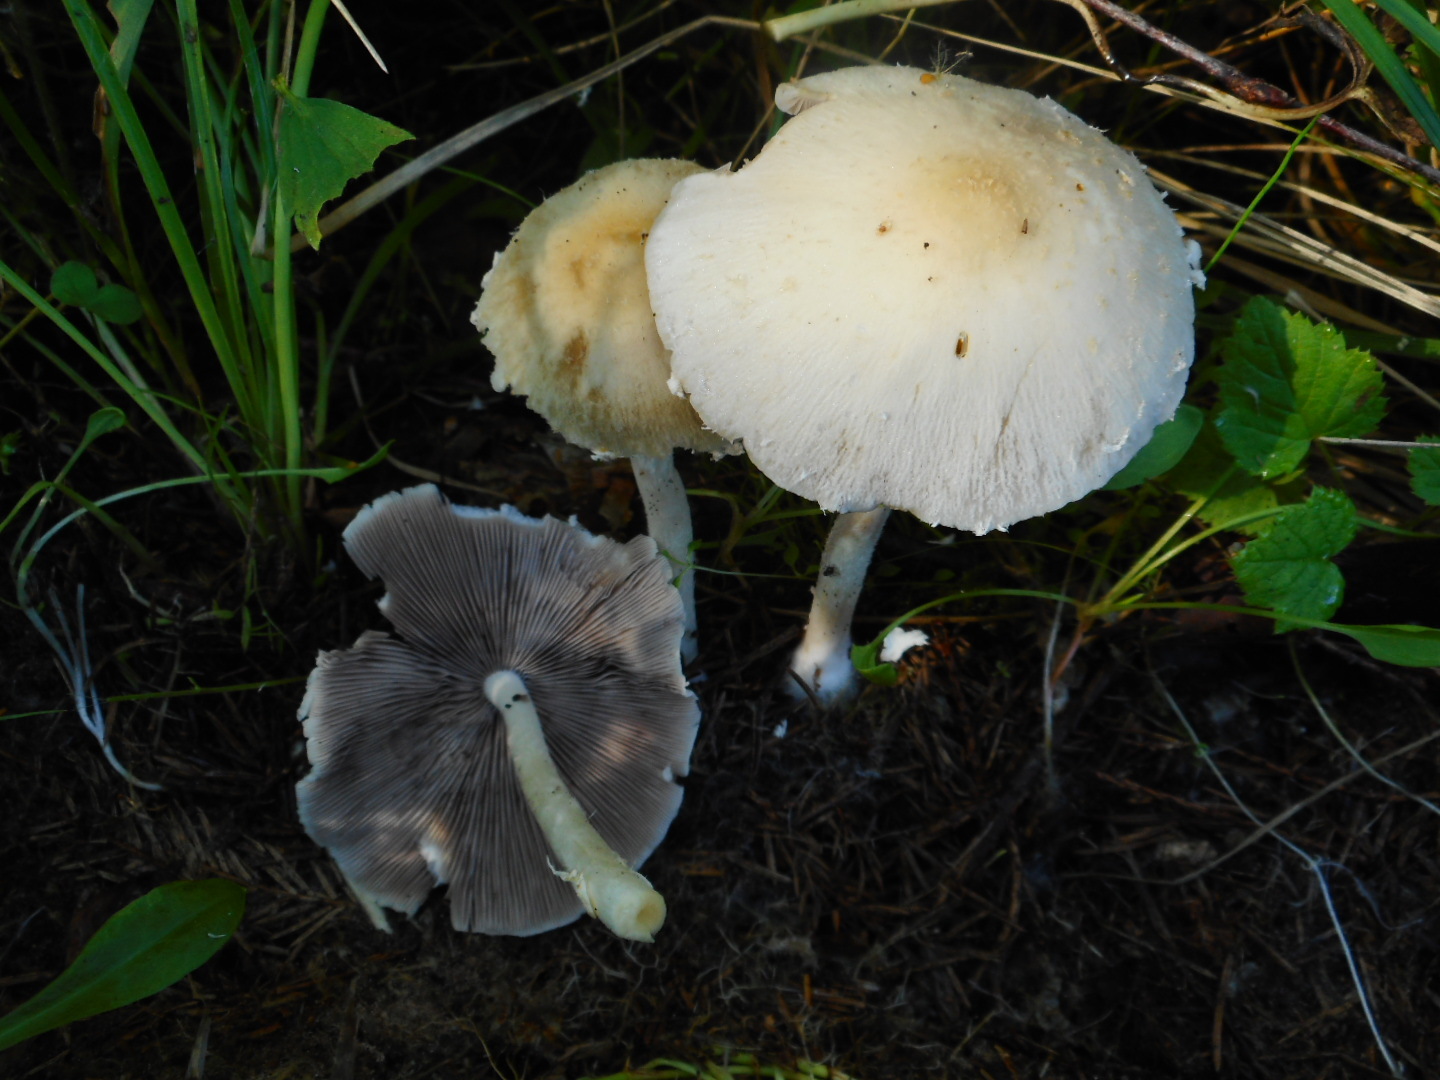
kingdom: Fungi
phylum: Basidiomycota
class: Agaricomycetes
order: Agaricales
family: Psathyrellaceae
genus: Candolleomyces
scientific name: Candolleomyces candolleanus
